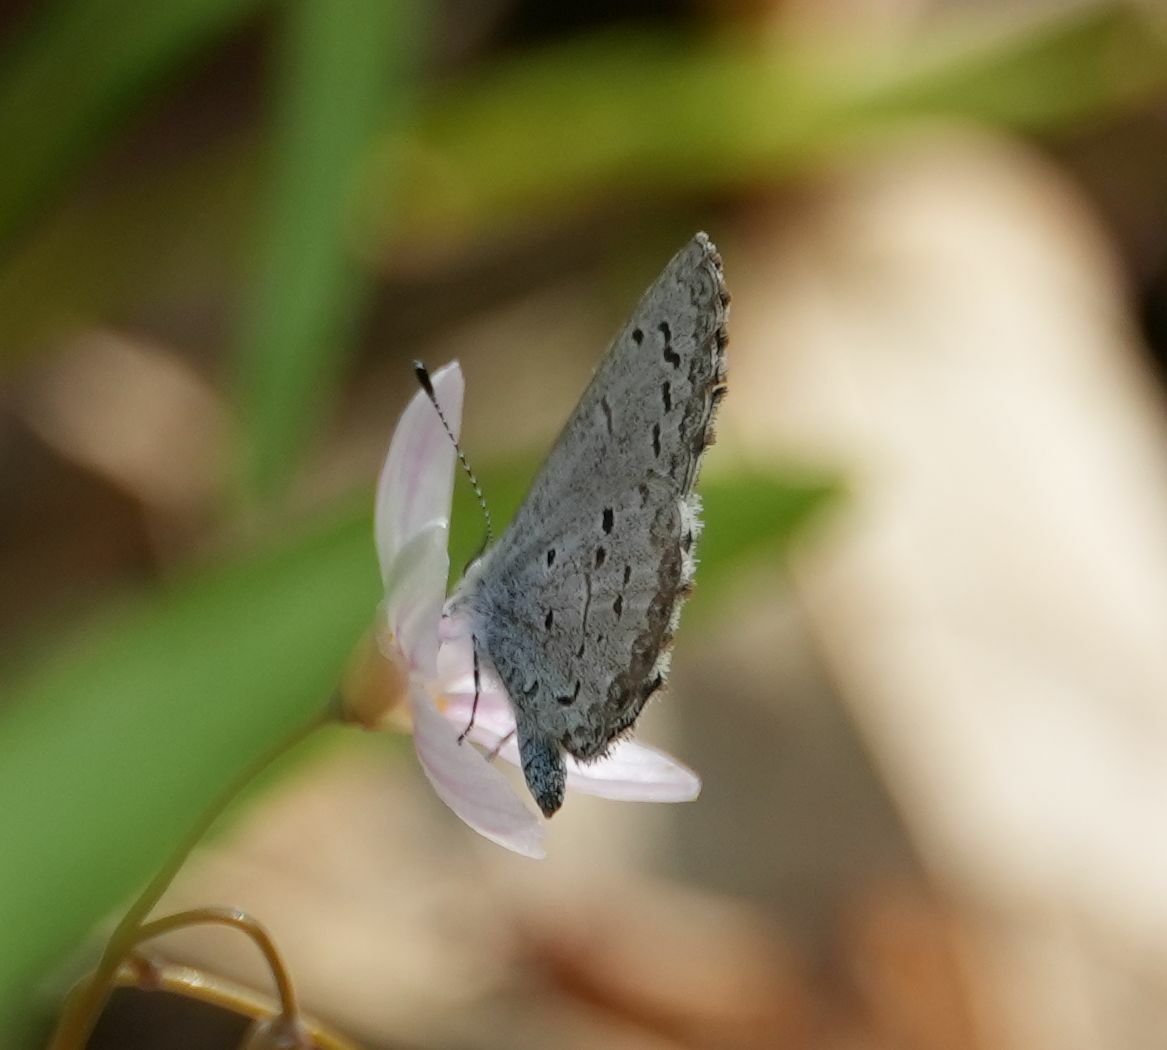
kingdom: Animalia
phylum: Arthropoda
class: Insecta
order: Lepidoptera
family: Lycaenidae
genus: Celastrina
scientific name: Celastrina lucia
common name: Lucia azure
